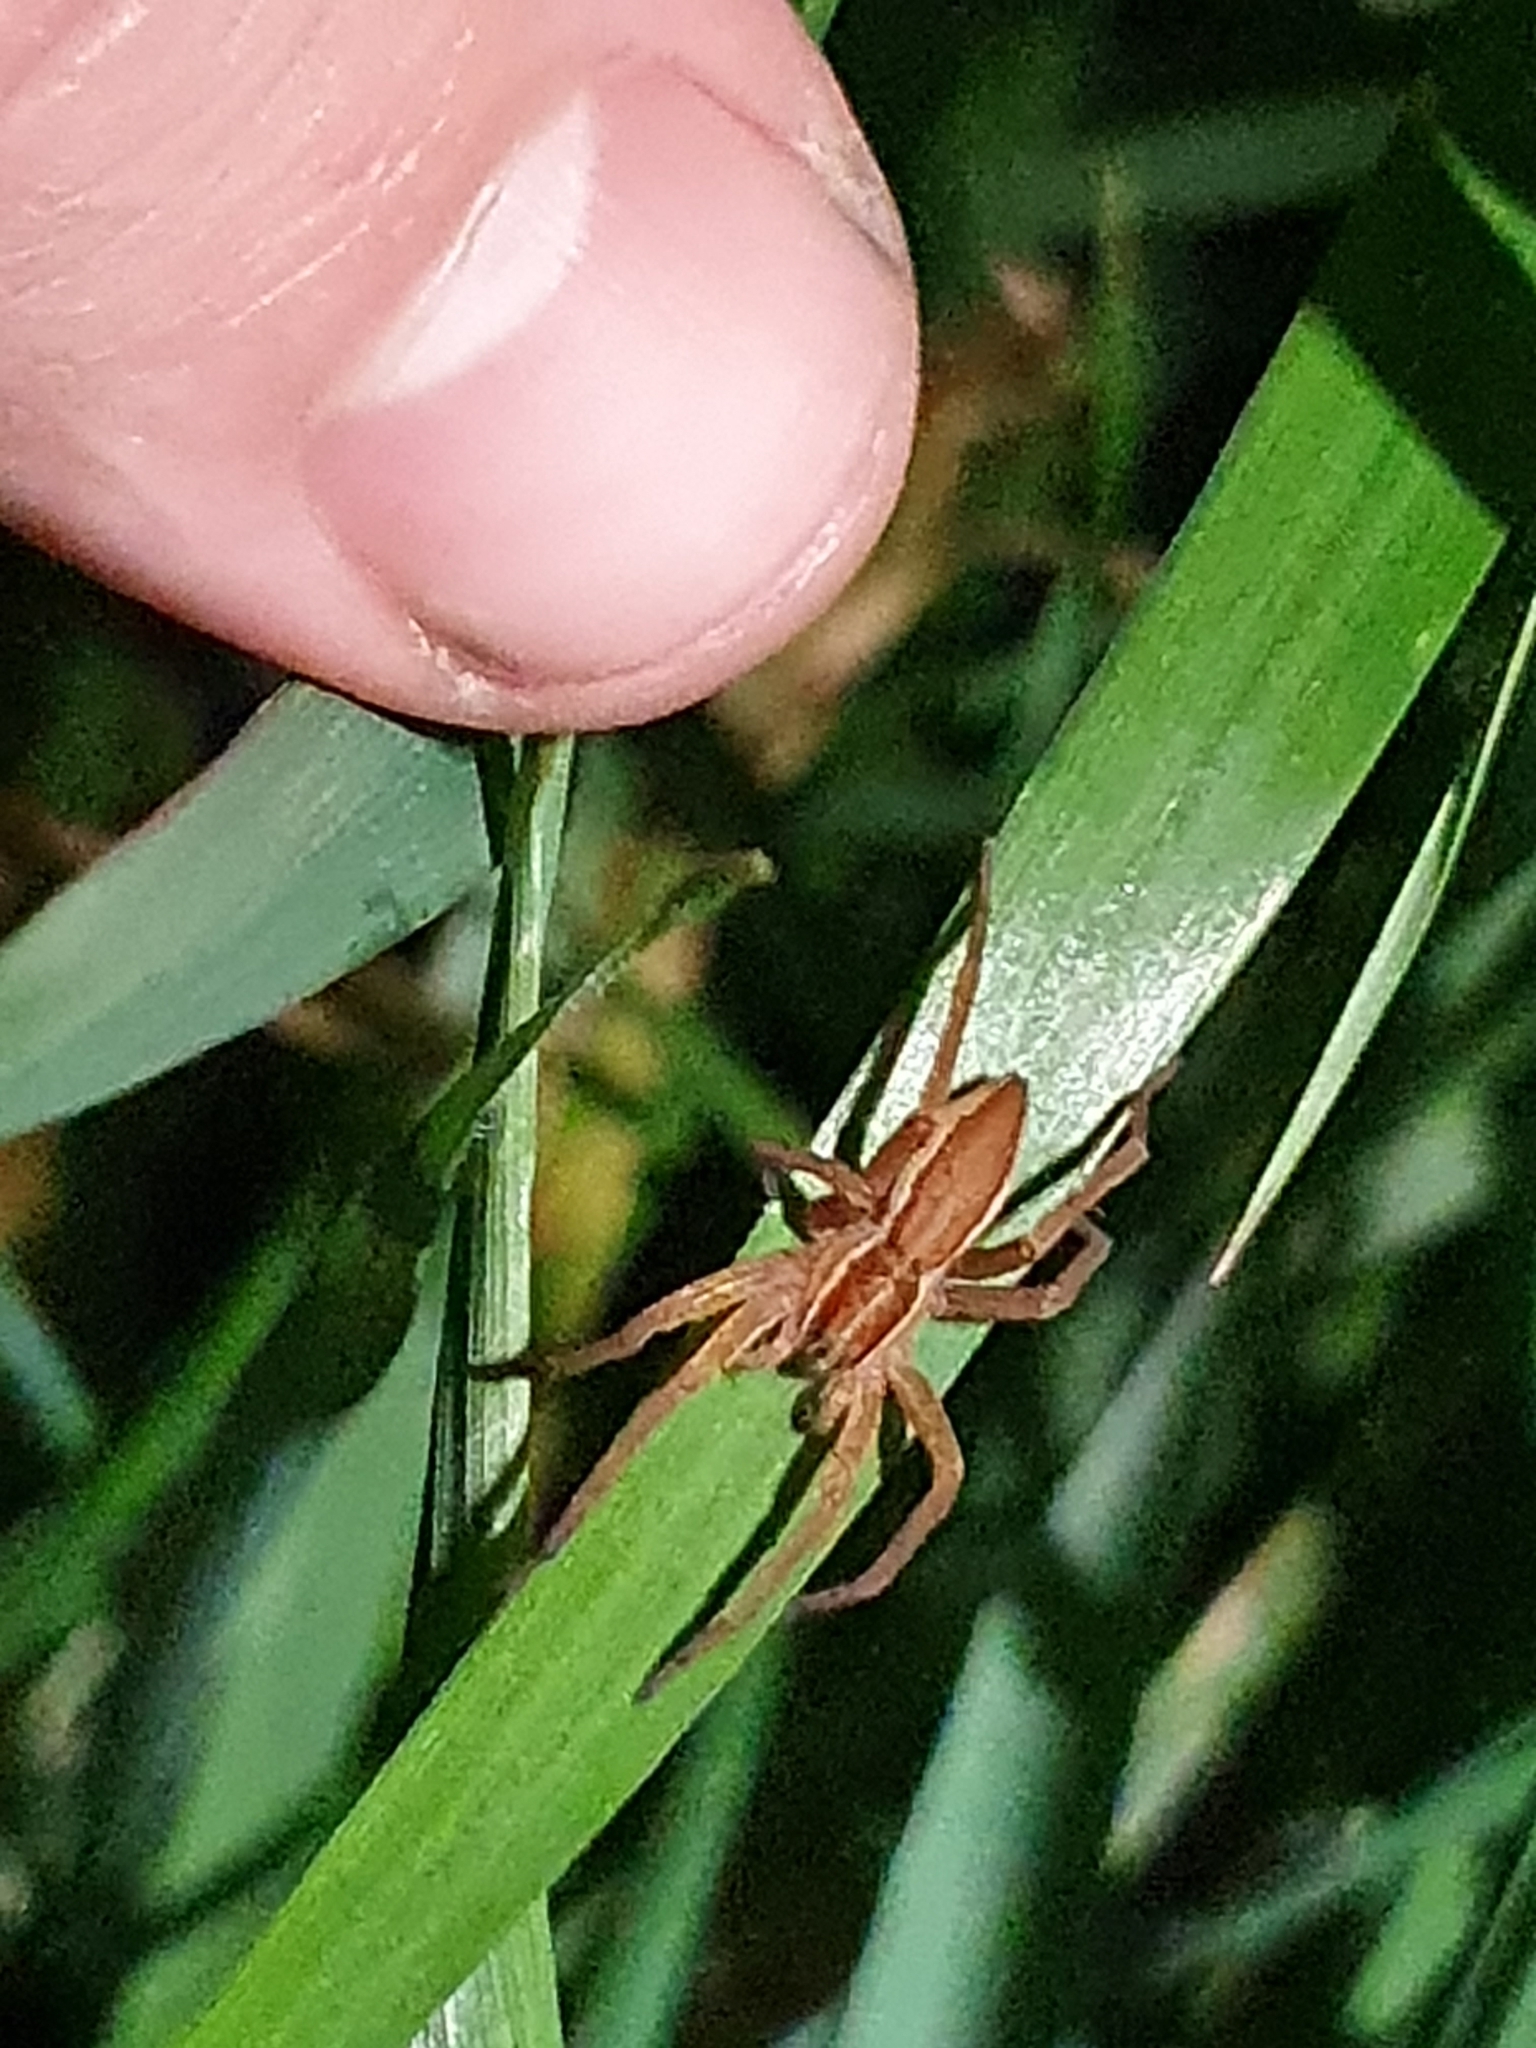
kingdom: Animalia
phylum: Arthropoda
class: Arachnida
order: Araneae
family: Pisauridae
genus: Dolomedes
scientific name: Dolomedes minor
